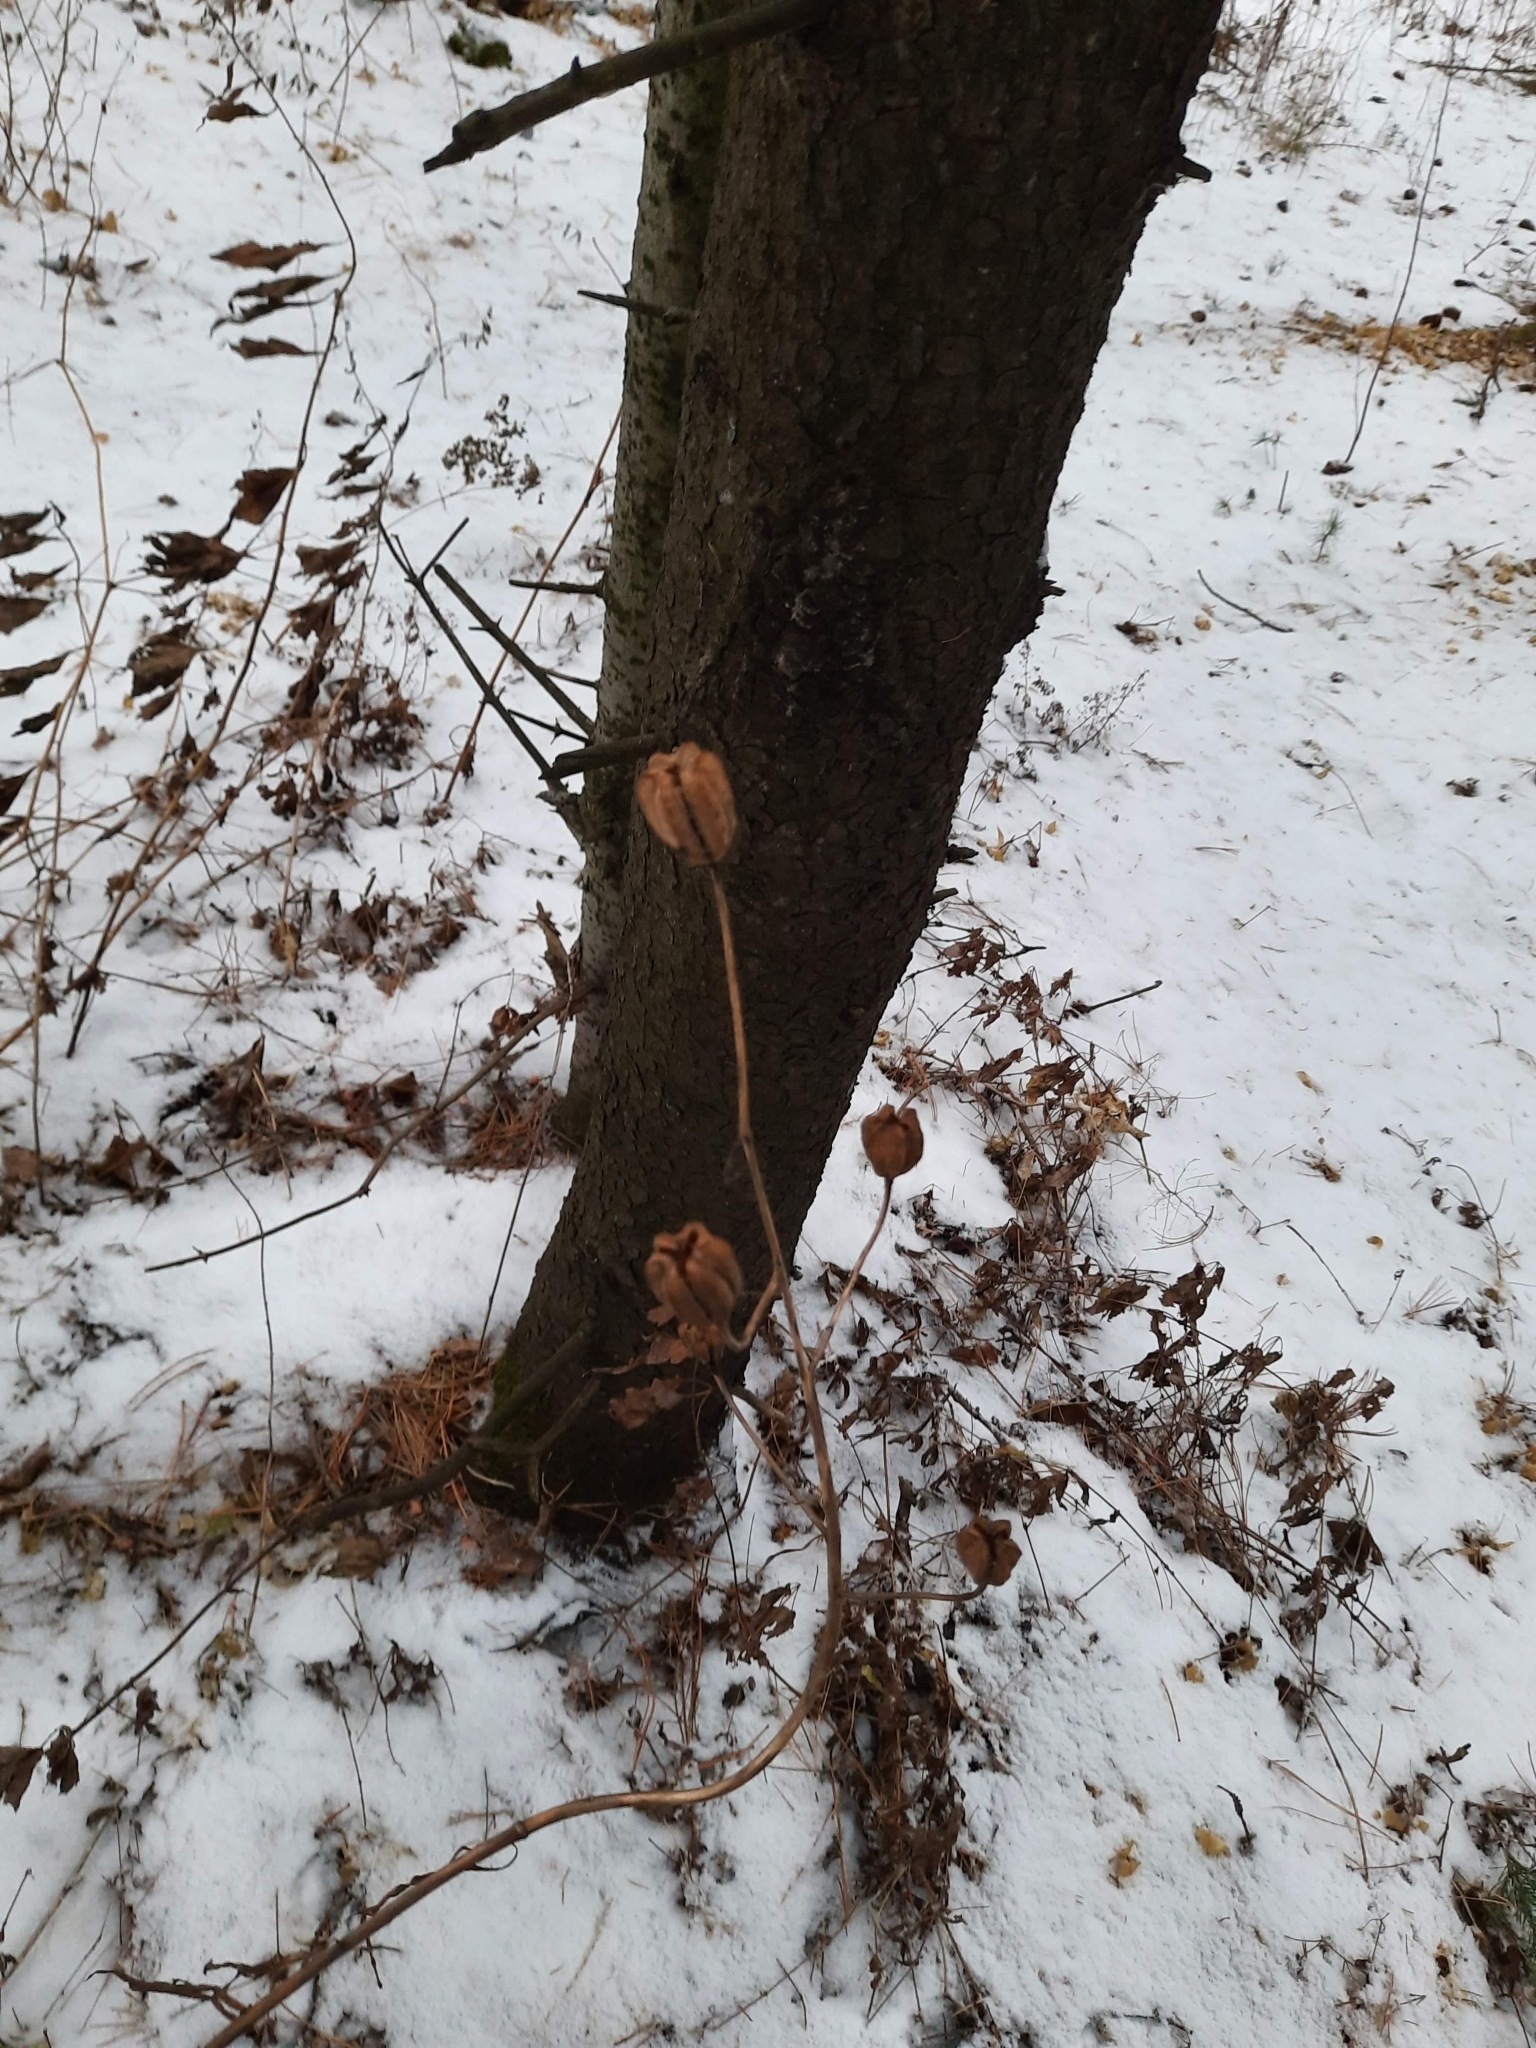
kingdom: Plantae
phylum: Tracheophyta
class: Liliopsida
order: Liliales
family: Liliaceae
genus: Lilium
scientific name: Lilium martagon
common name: Martagon lily
